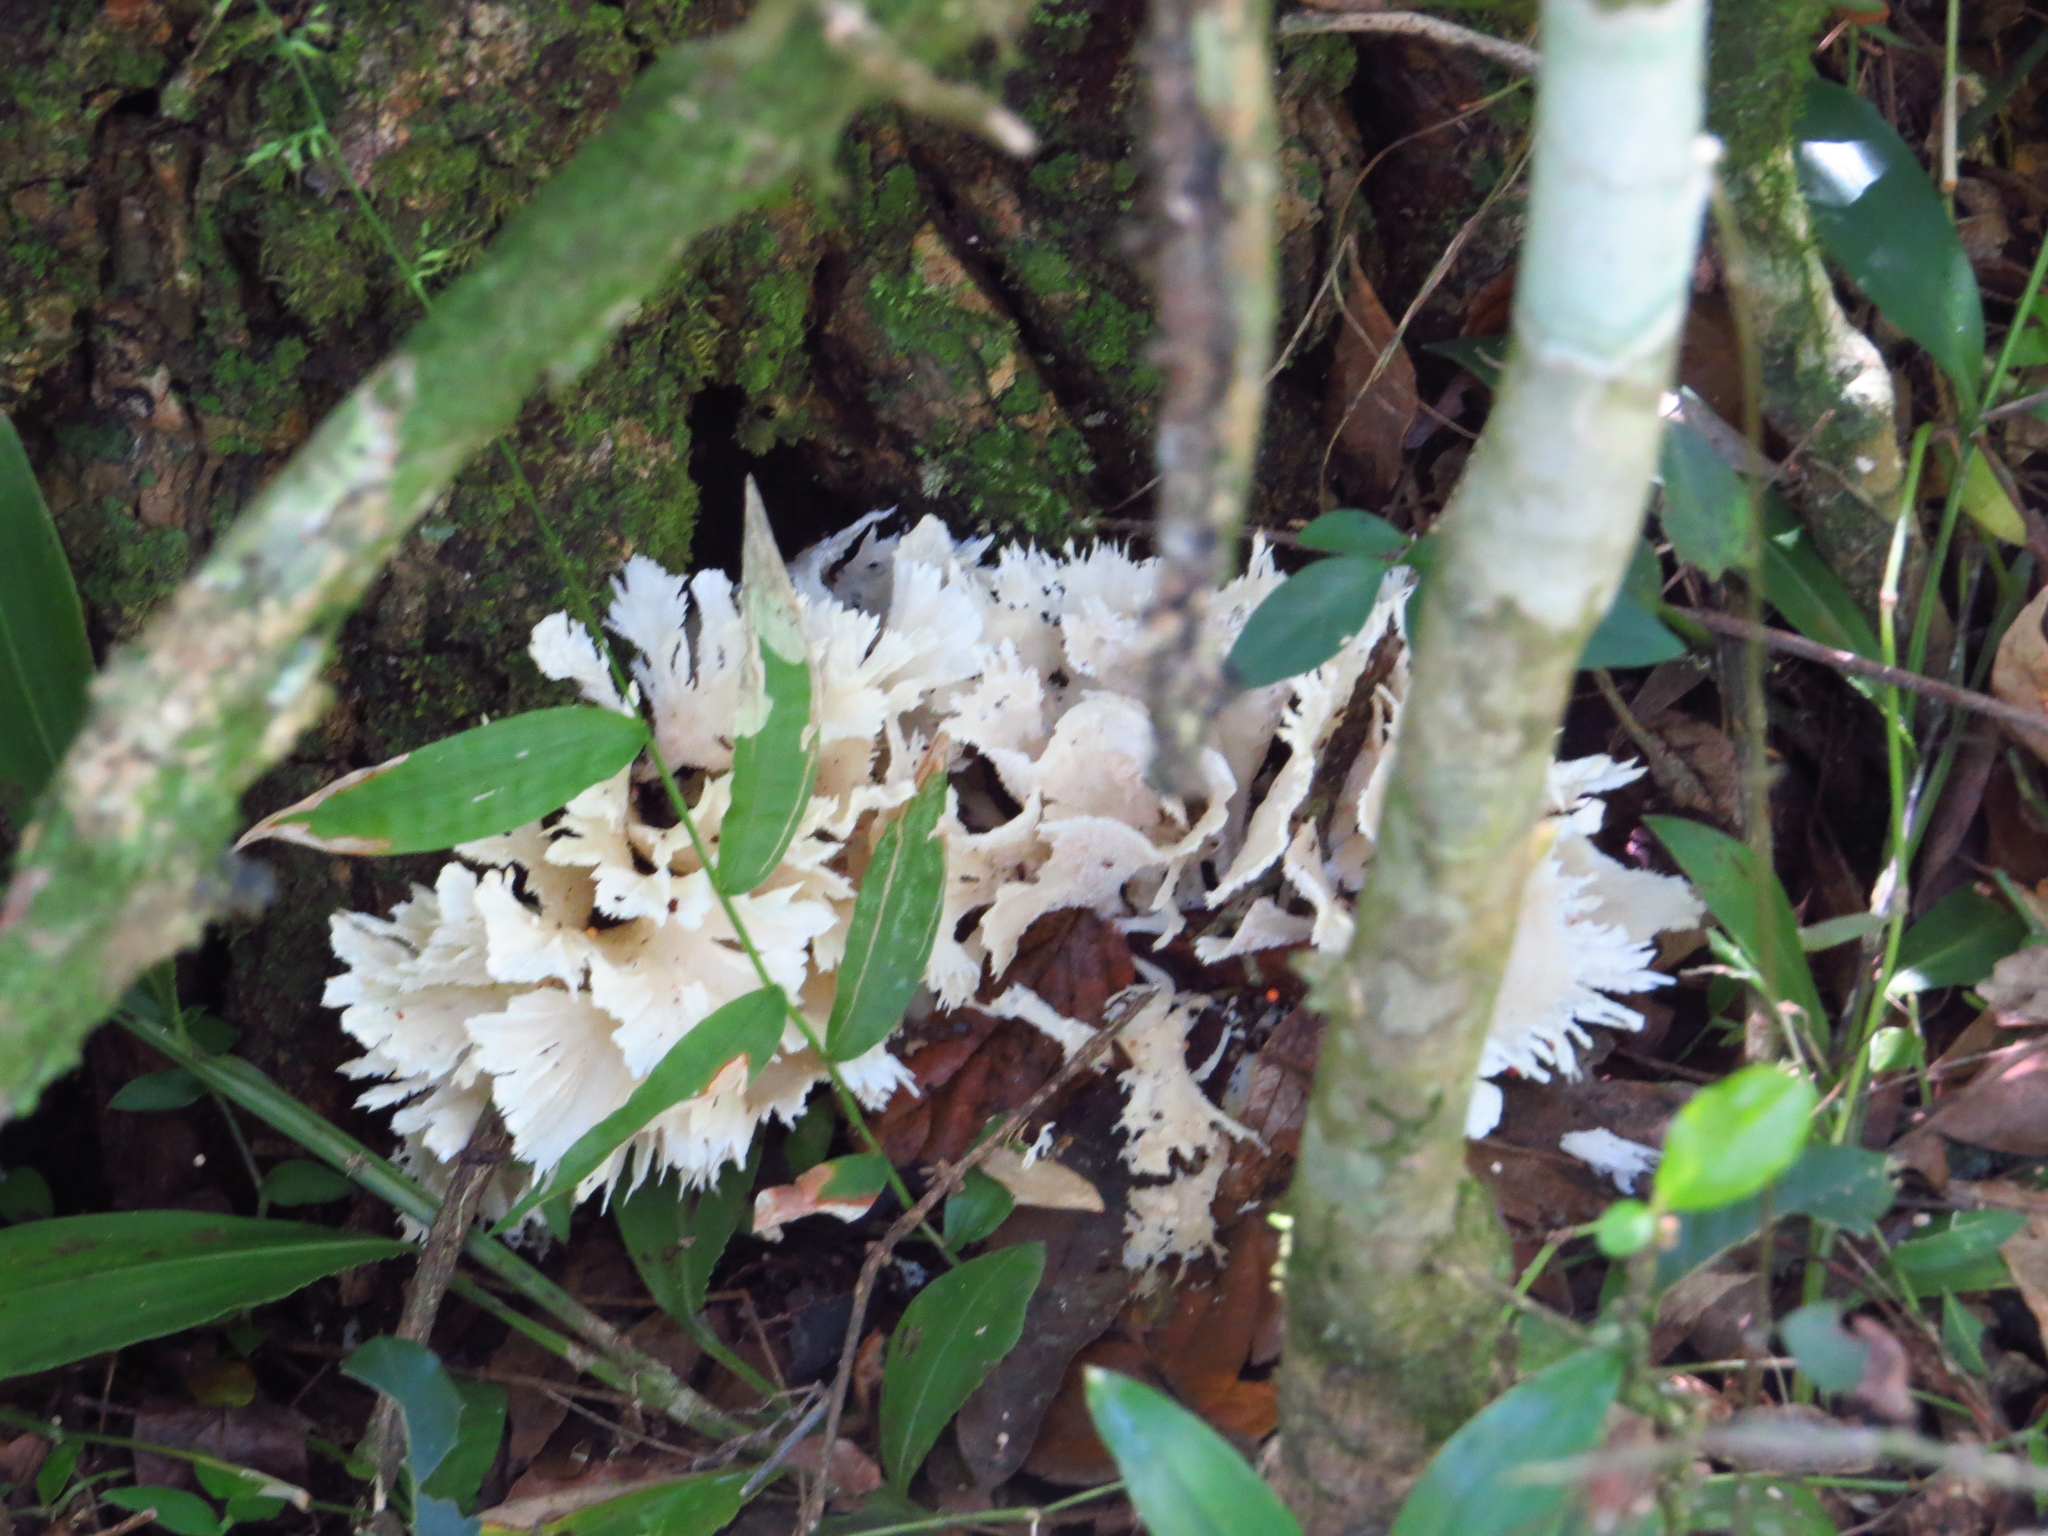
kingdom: Fungi
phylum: Basidiomycota
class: Agaricomycetes
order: Polyporales
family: Irpicaceae
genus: Irpex
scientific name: Irpex rosettiformis
